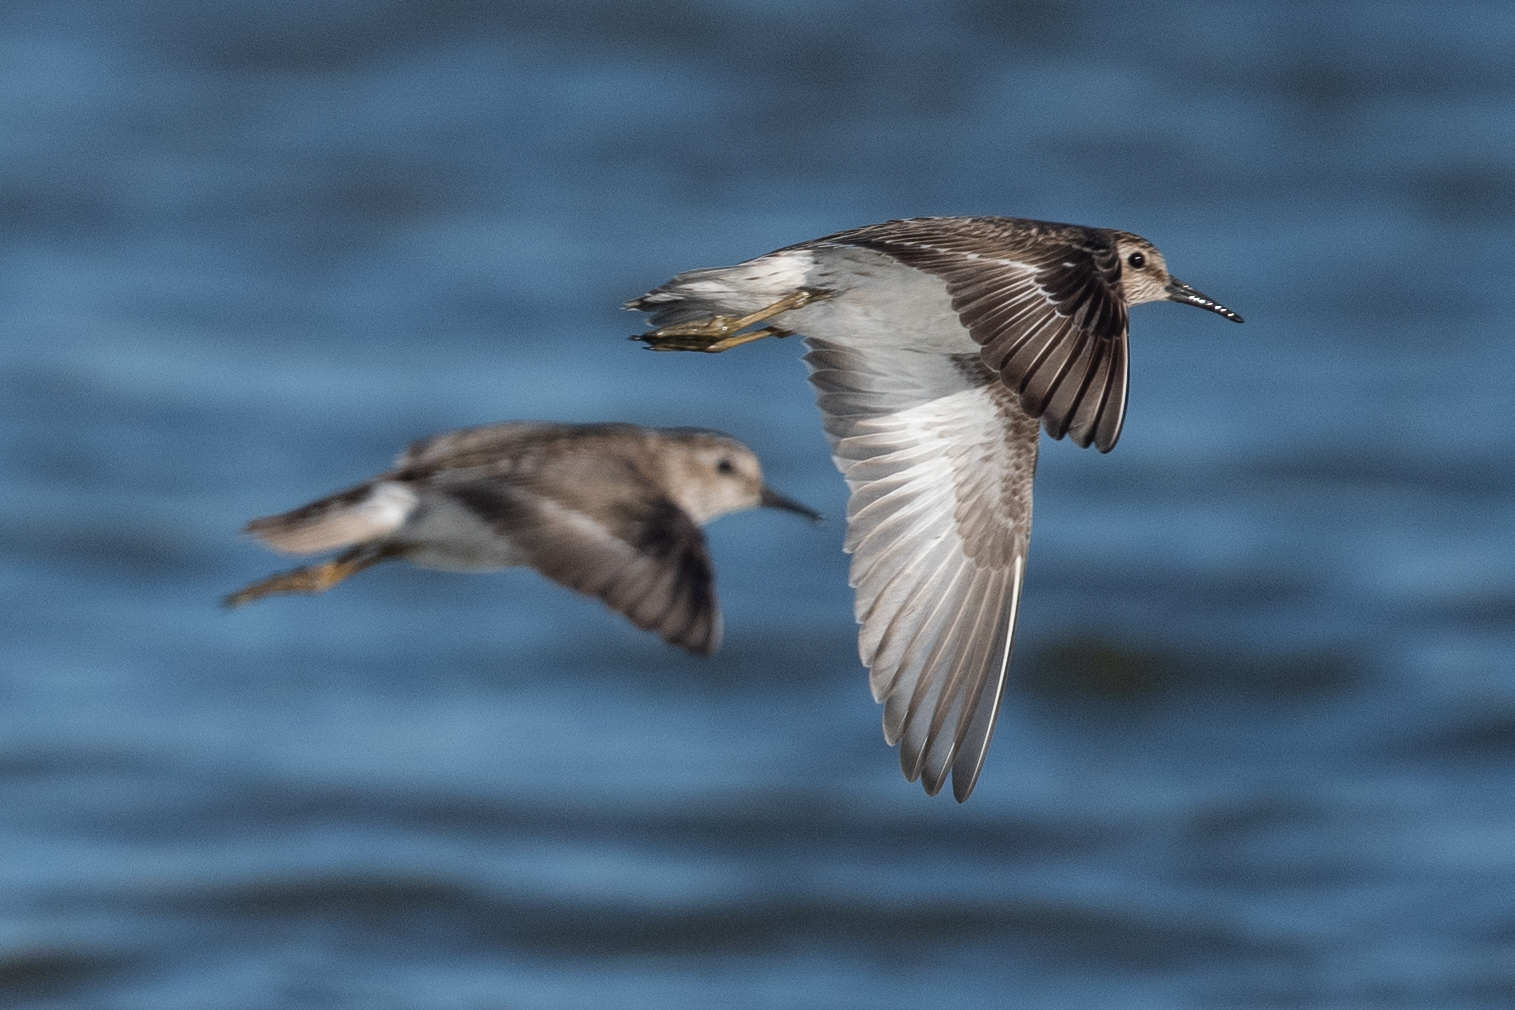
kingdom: Animalia
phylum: Chordata
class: Aves
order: Charadriiformes
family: Scolopacidae
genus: Calidris
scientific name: Calidris minutilla
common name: Least sandpiper
